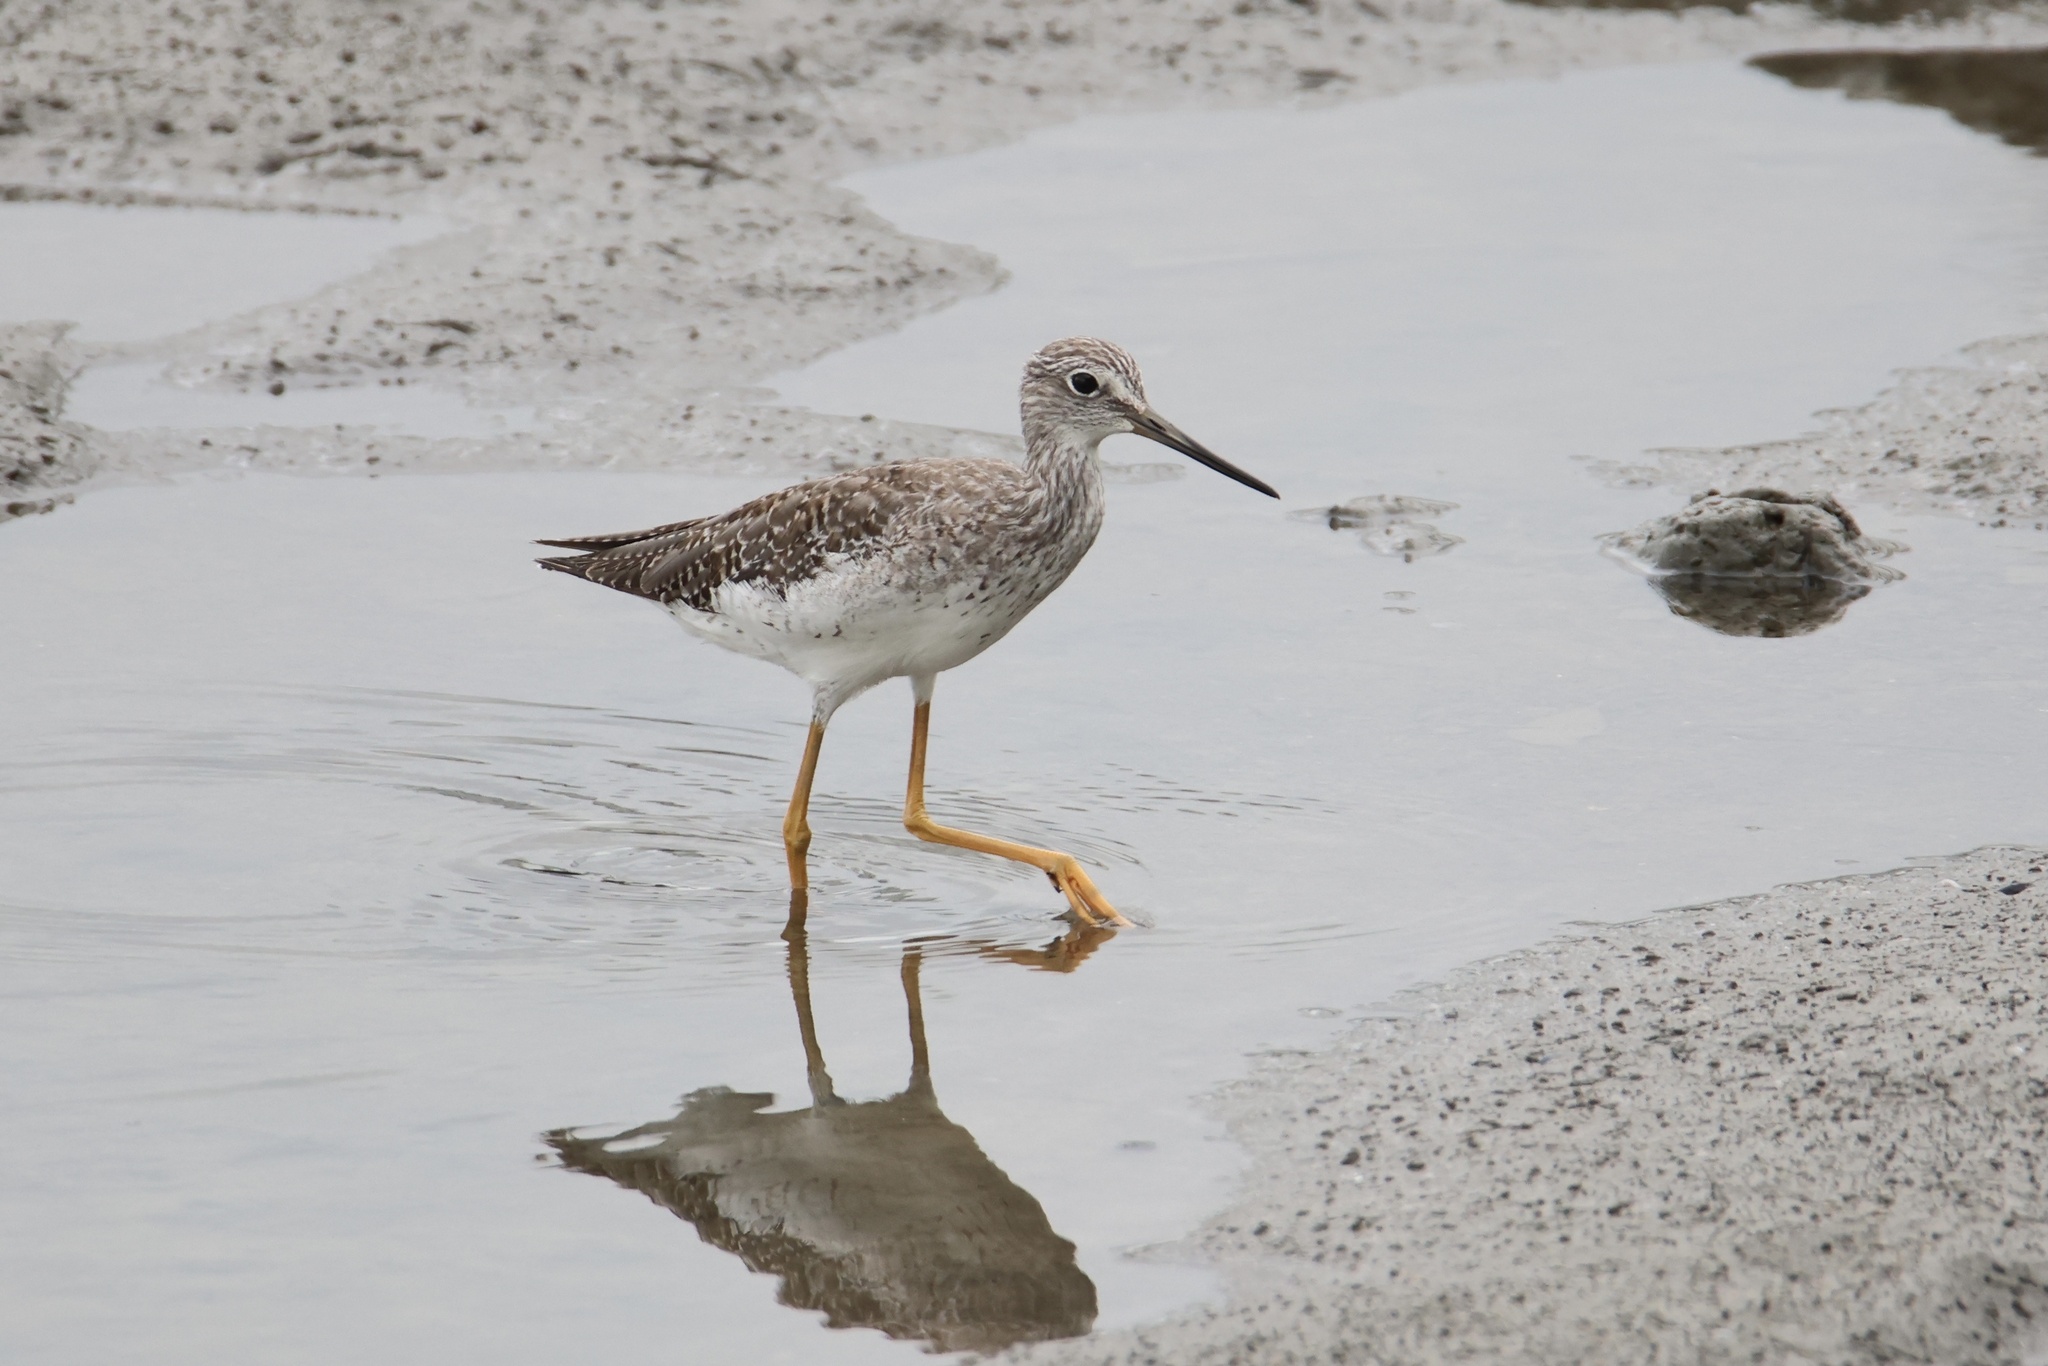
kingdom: Animalia
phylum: Chordata
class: Aves
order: Charadriiformes
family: Scolopacidae
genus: Tringa
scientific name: Tringa melanoleuca
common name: Greater yellowlegs
